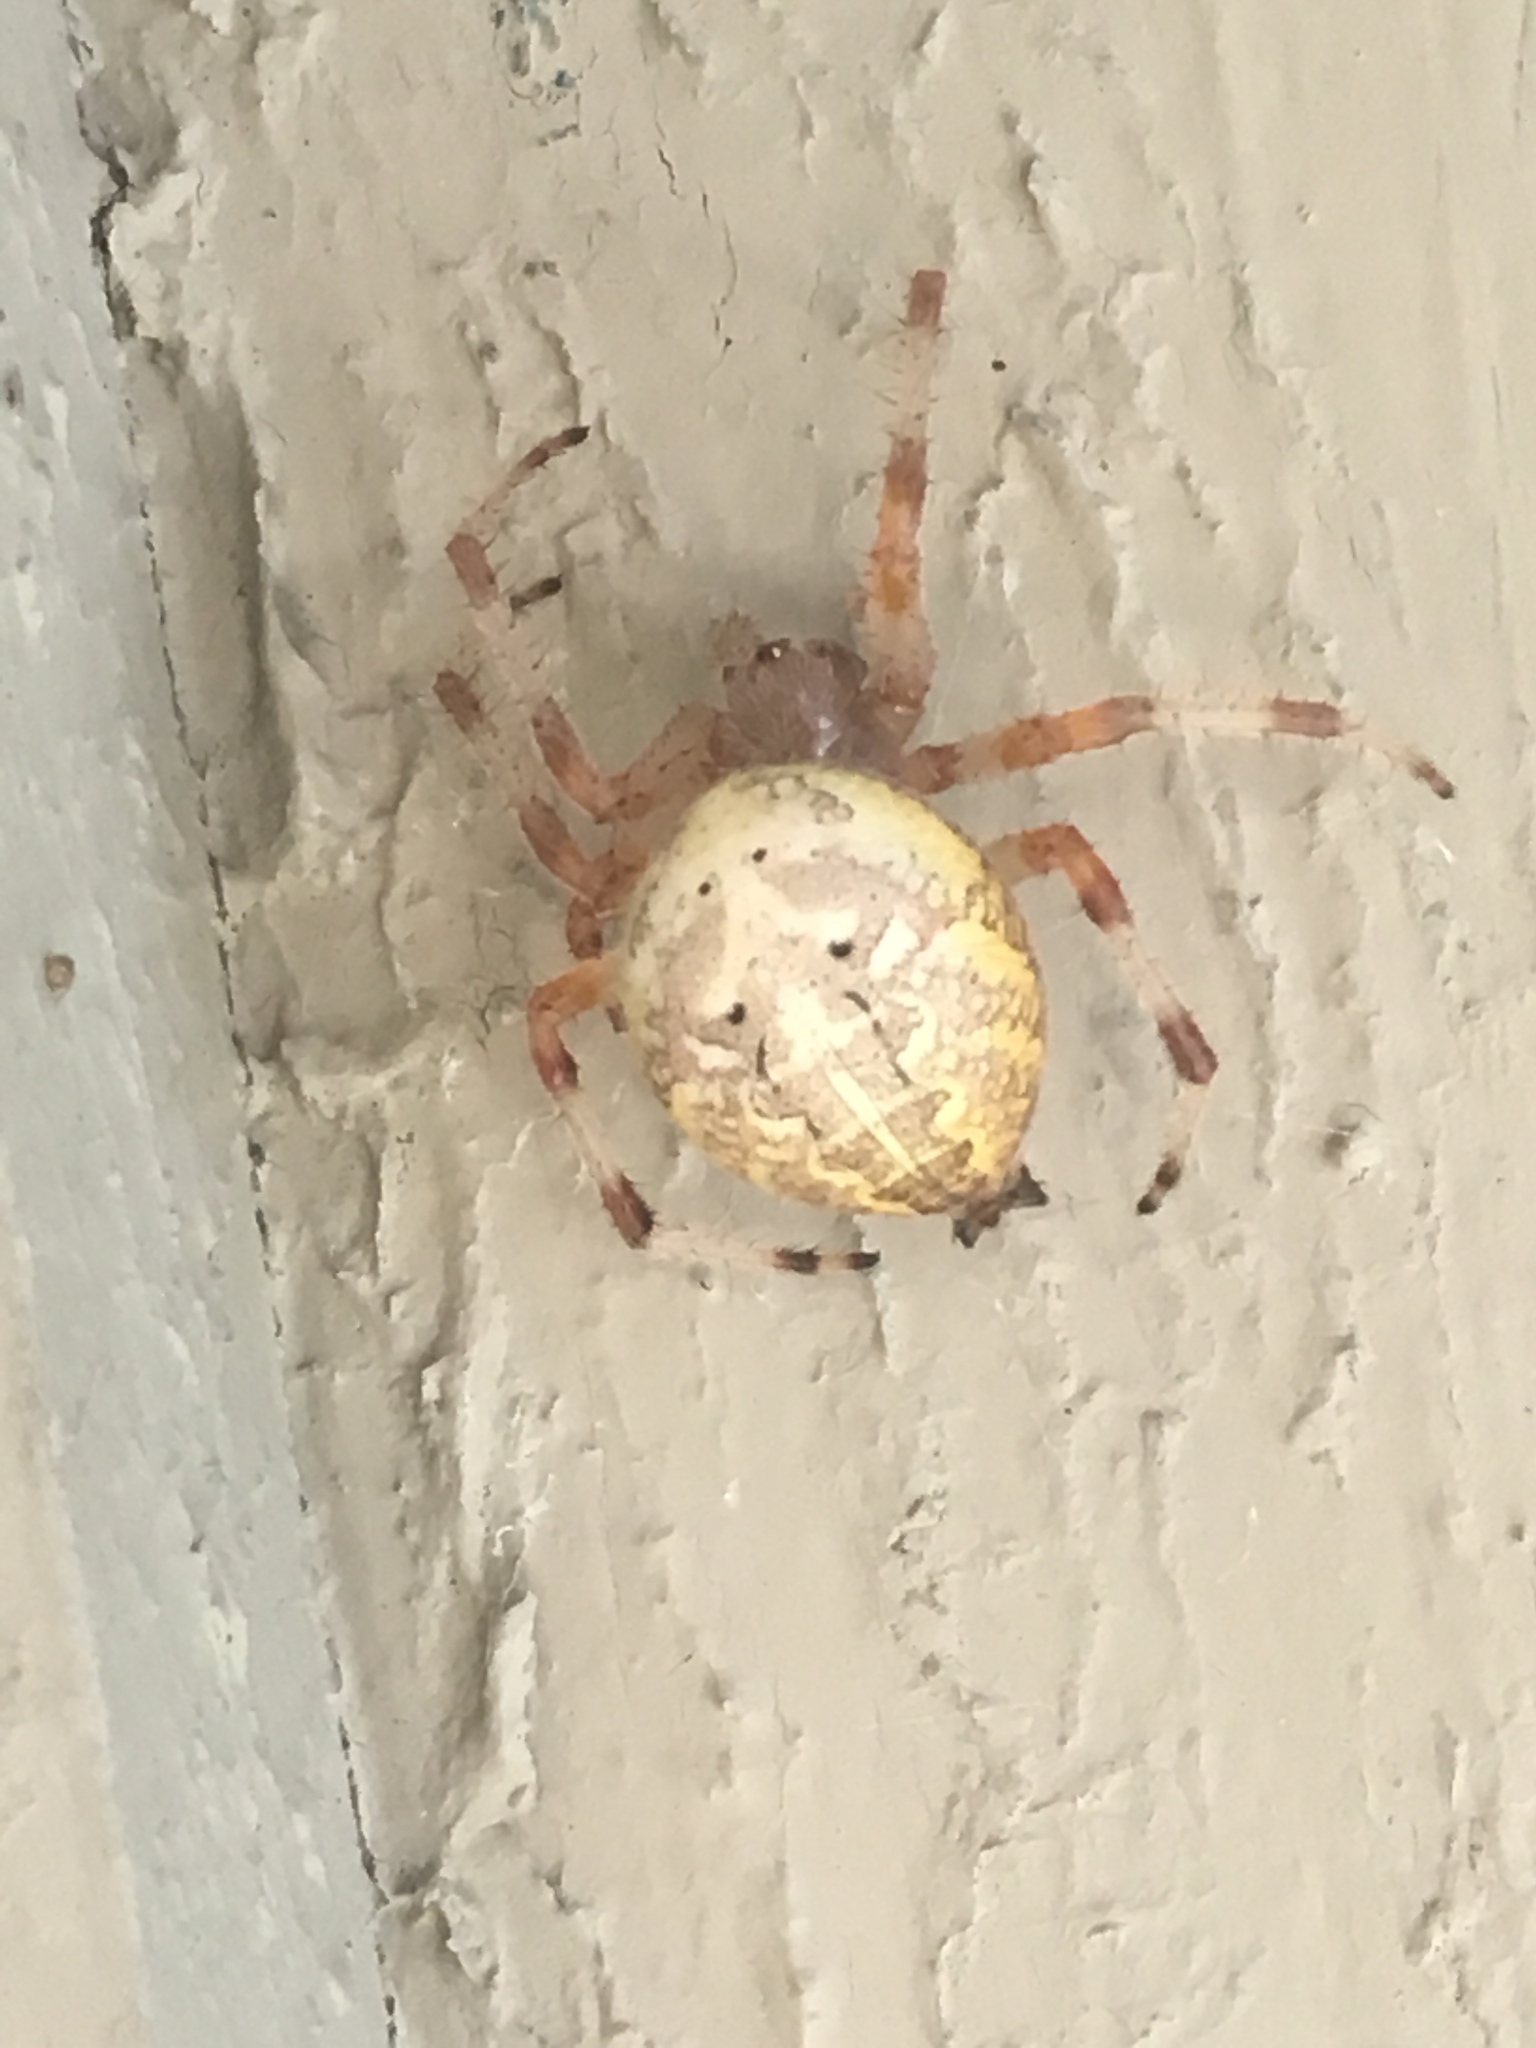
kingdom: Animalia
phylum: Arthropoda
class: Arachnida
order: Araneae
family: Araneidae
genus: Araneus
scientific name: Araneus marmoreus
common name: Marbled orbweaver
